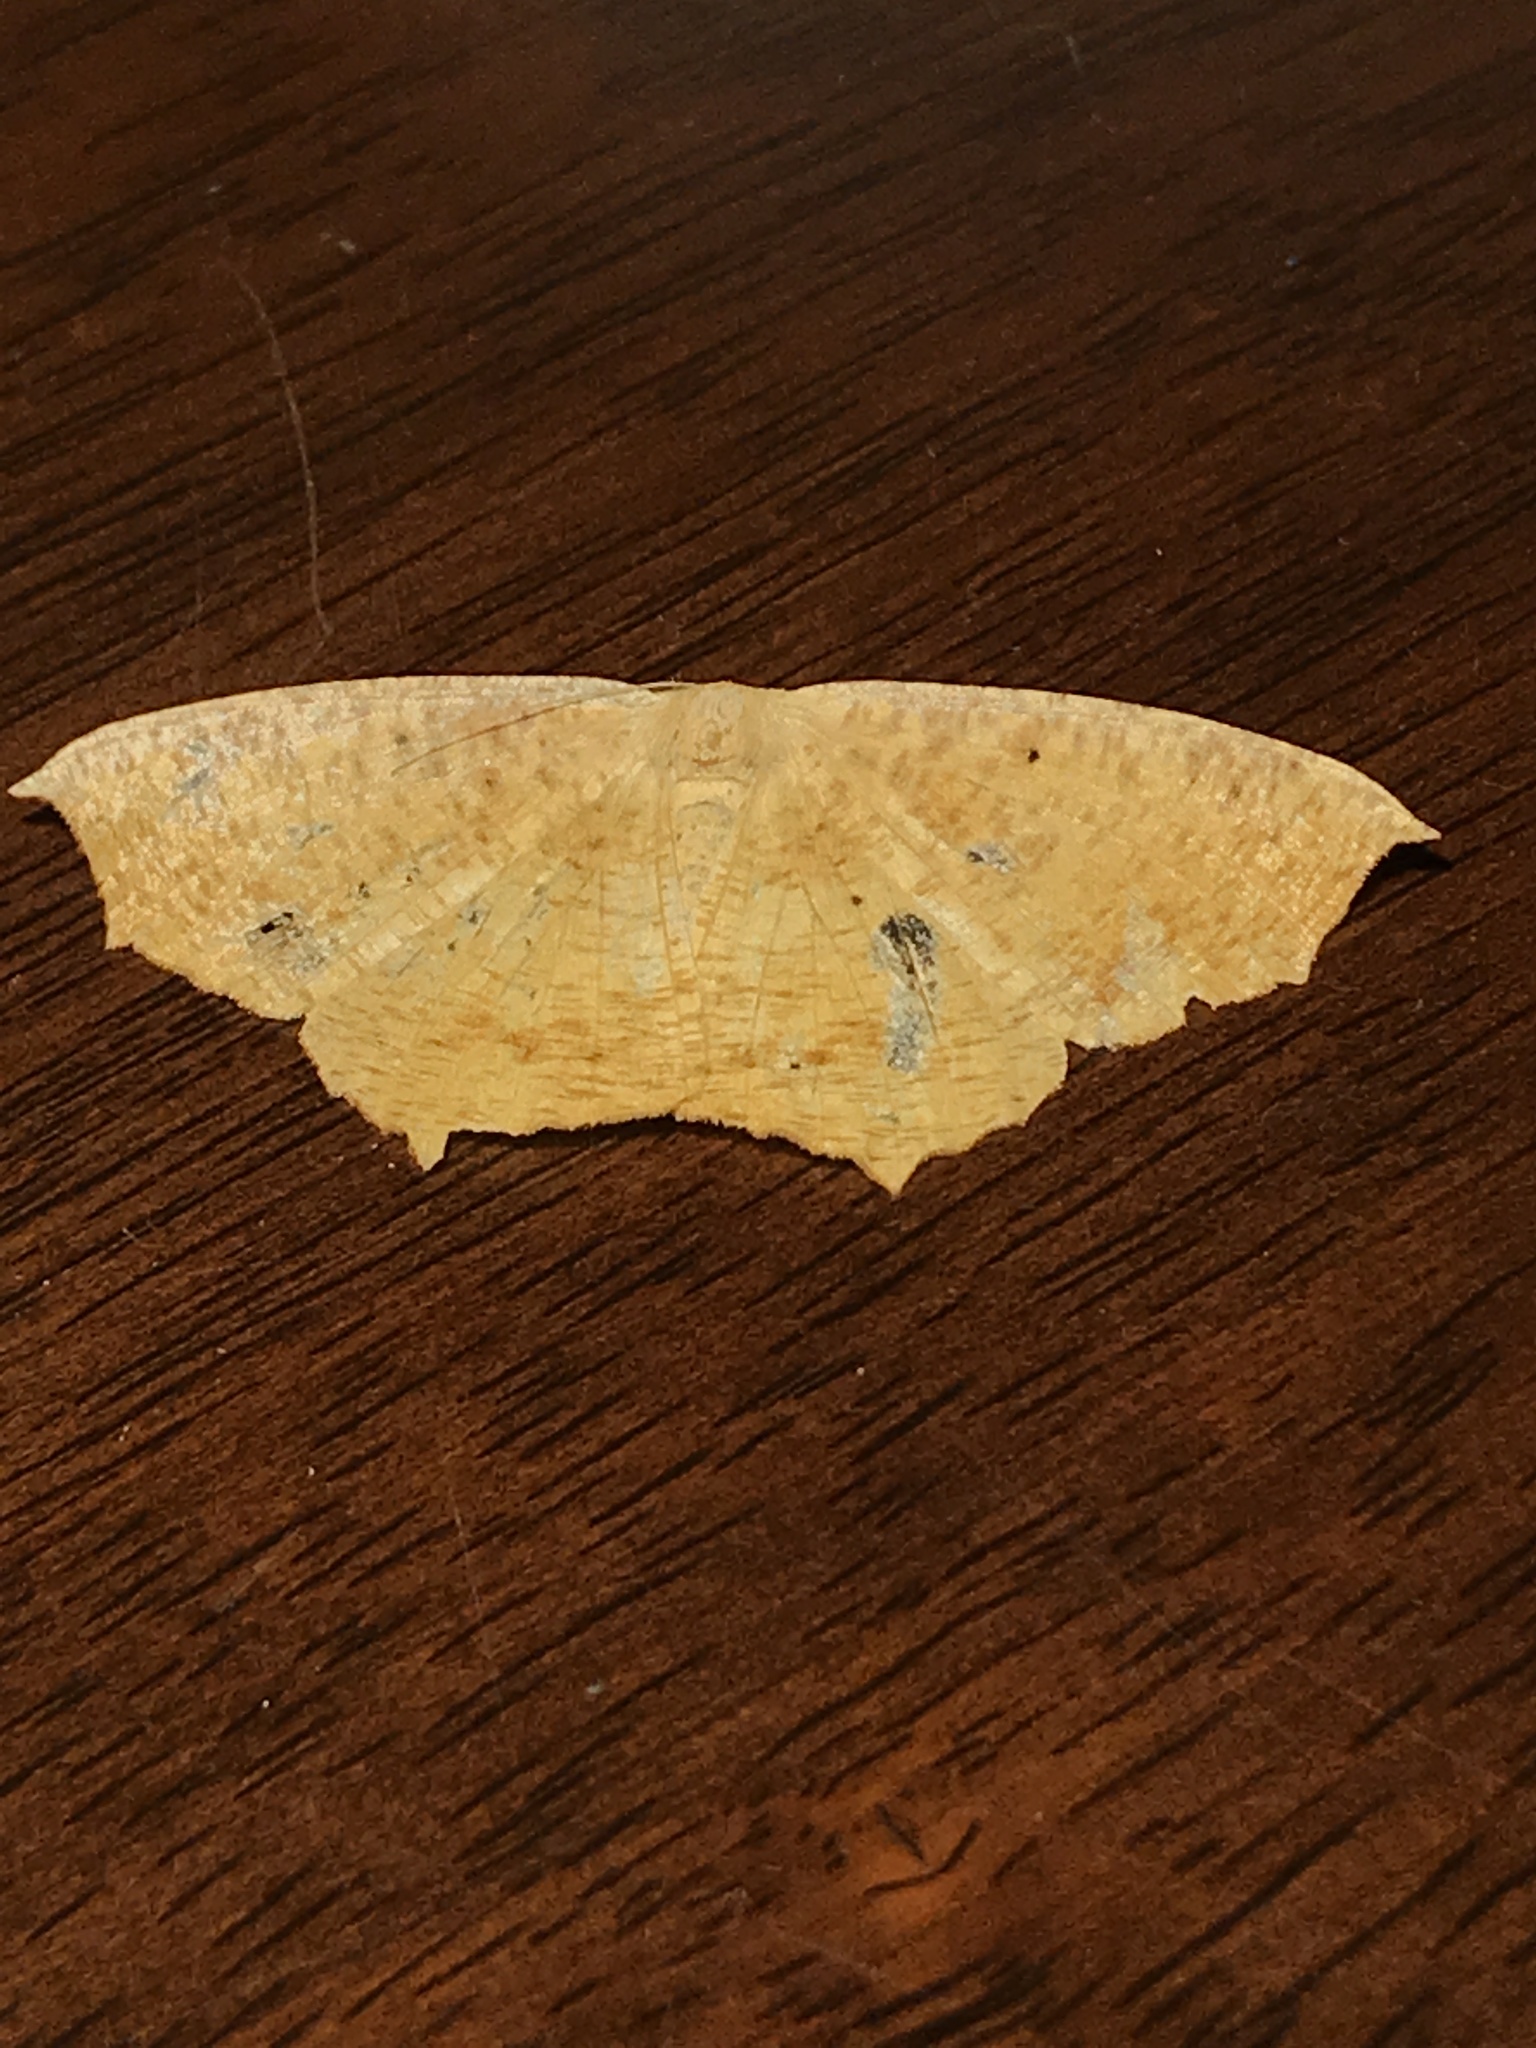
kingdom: Animalia
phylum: Arthropoda
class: Insecta
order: Lepidoptera
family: Geometridae
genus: Prochoerodes
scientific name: Prochoerodes lineola
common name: Large maple spanworm
